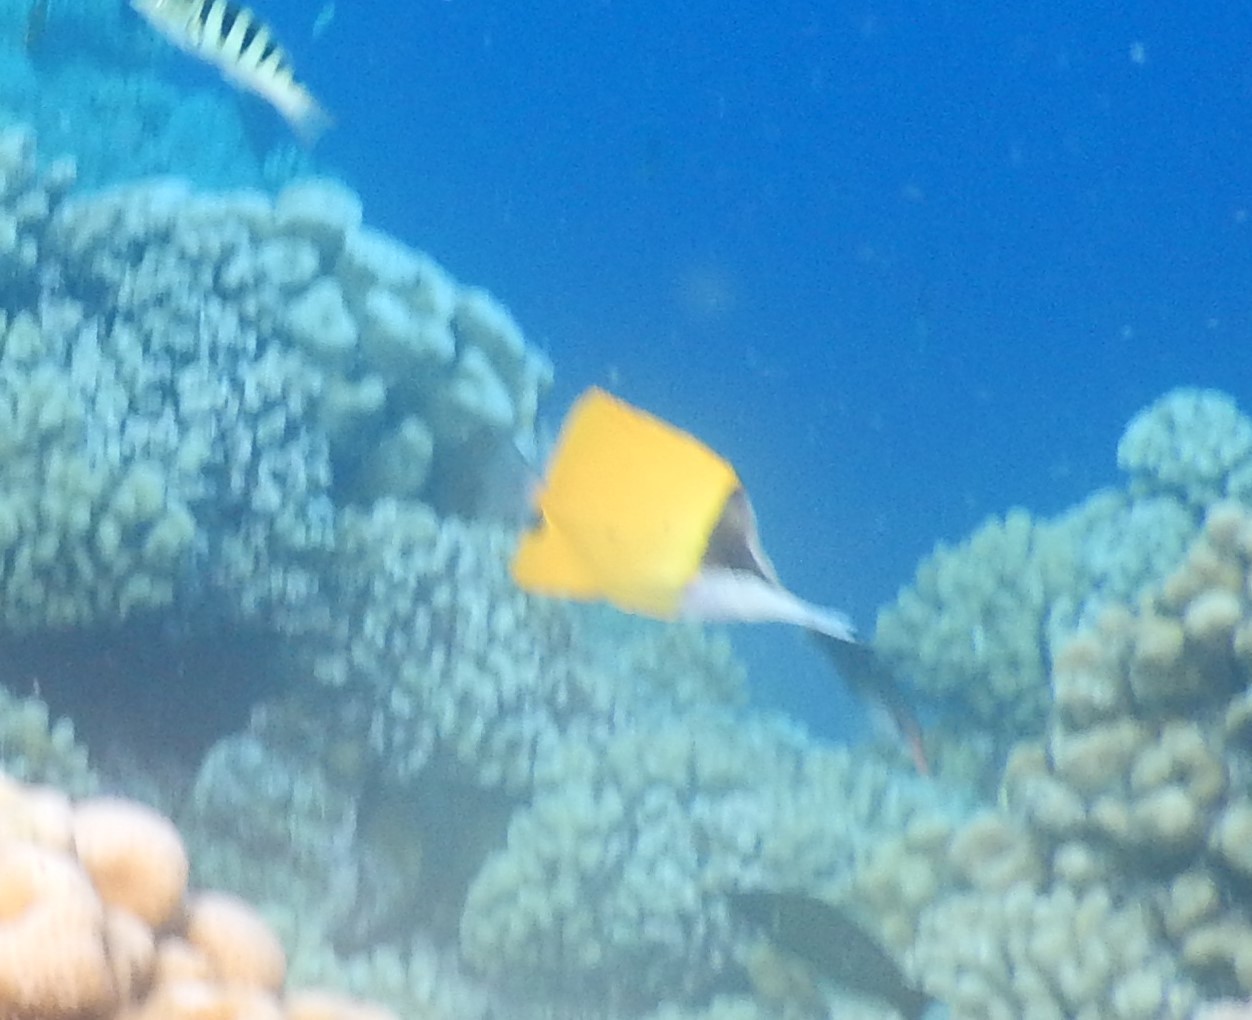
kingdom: Animalia
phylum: Chordata
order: Perciformes
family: Chaetodontidae
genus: Forcipiger
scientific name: Forcipiger flavissimus
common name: Forcepsfish
